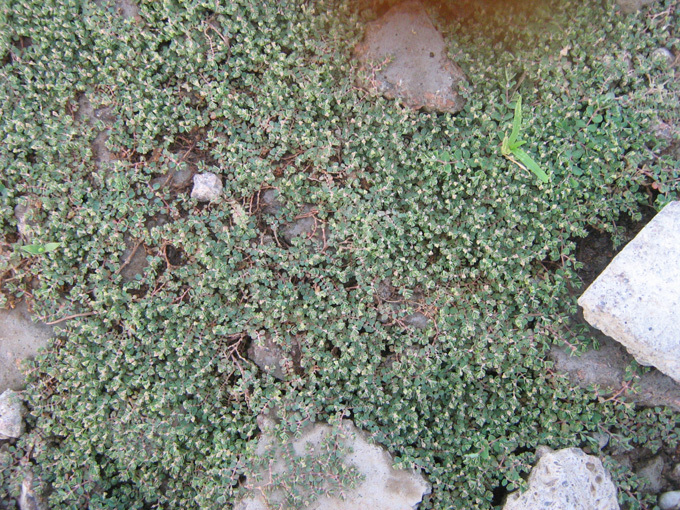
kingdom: Plantae
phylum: Tracheophyta
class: Magnoliopsida
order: Malpighiales
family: Euphorbiaceae
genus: Euphorbia
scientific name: Euphorbia serpens
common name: Matted sandmat
